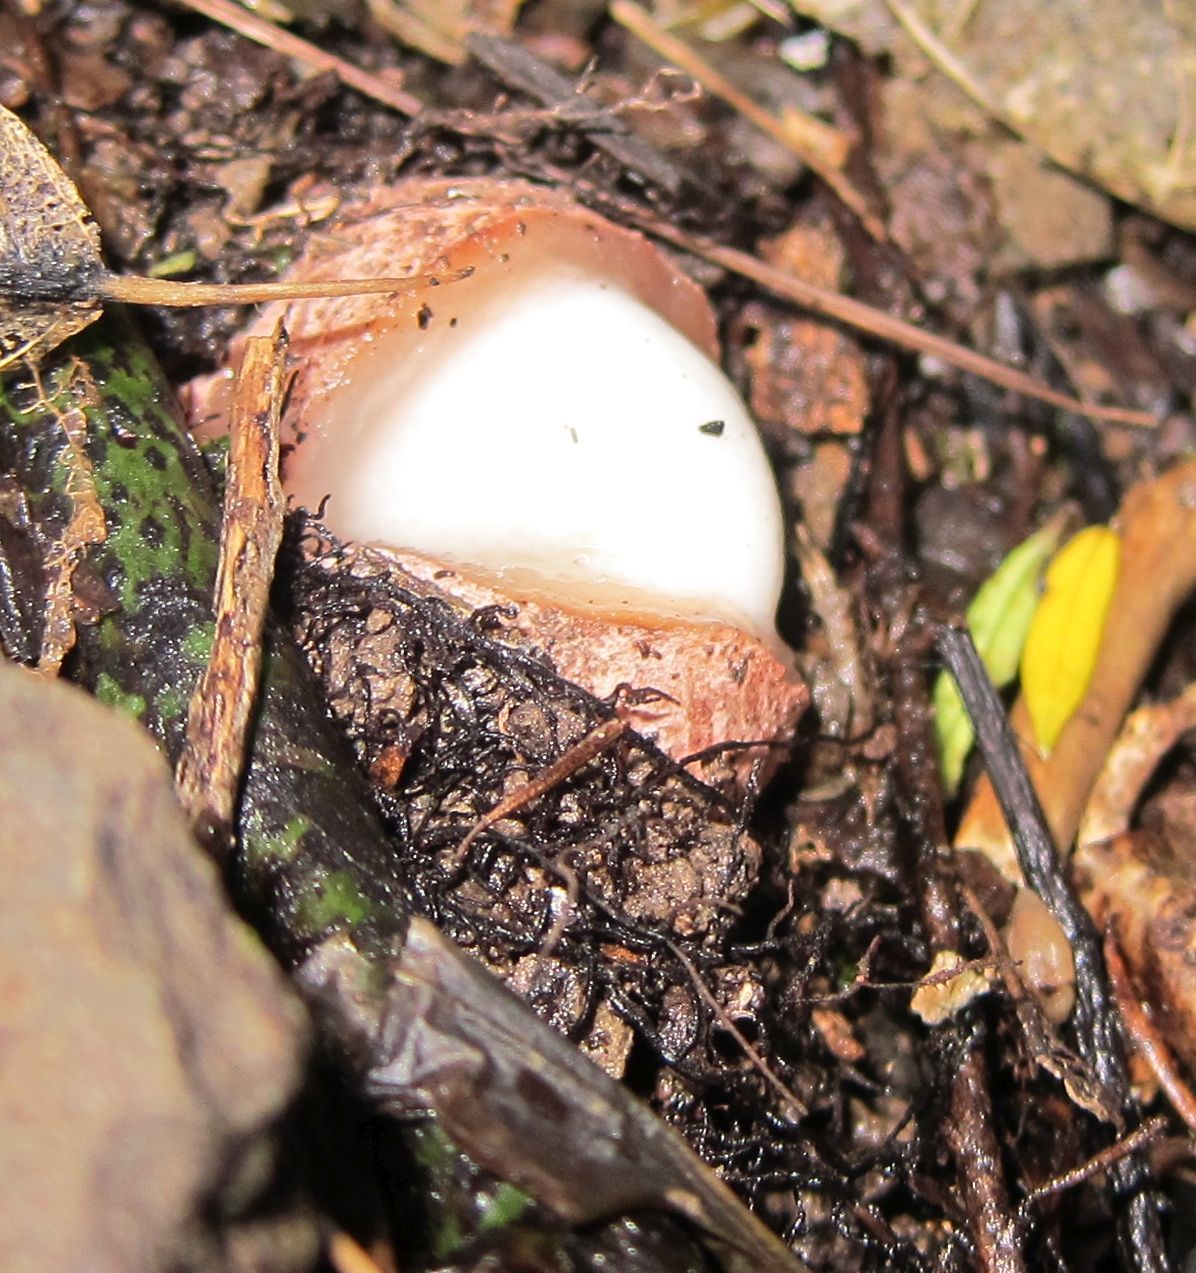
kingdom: Fungi
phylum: Basidiomycota
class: Agaricomycetes
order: Phallales
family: Claustulaceae
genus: Claustula
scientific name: Claustula fischeri
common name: Bunyip egg
